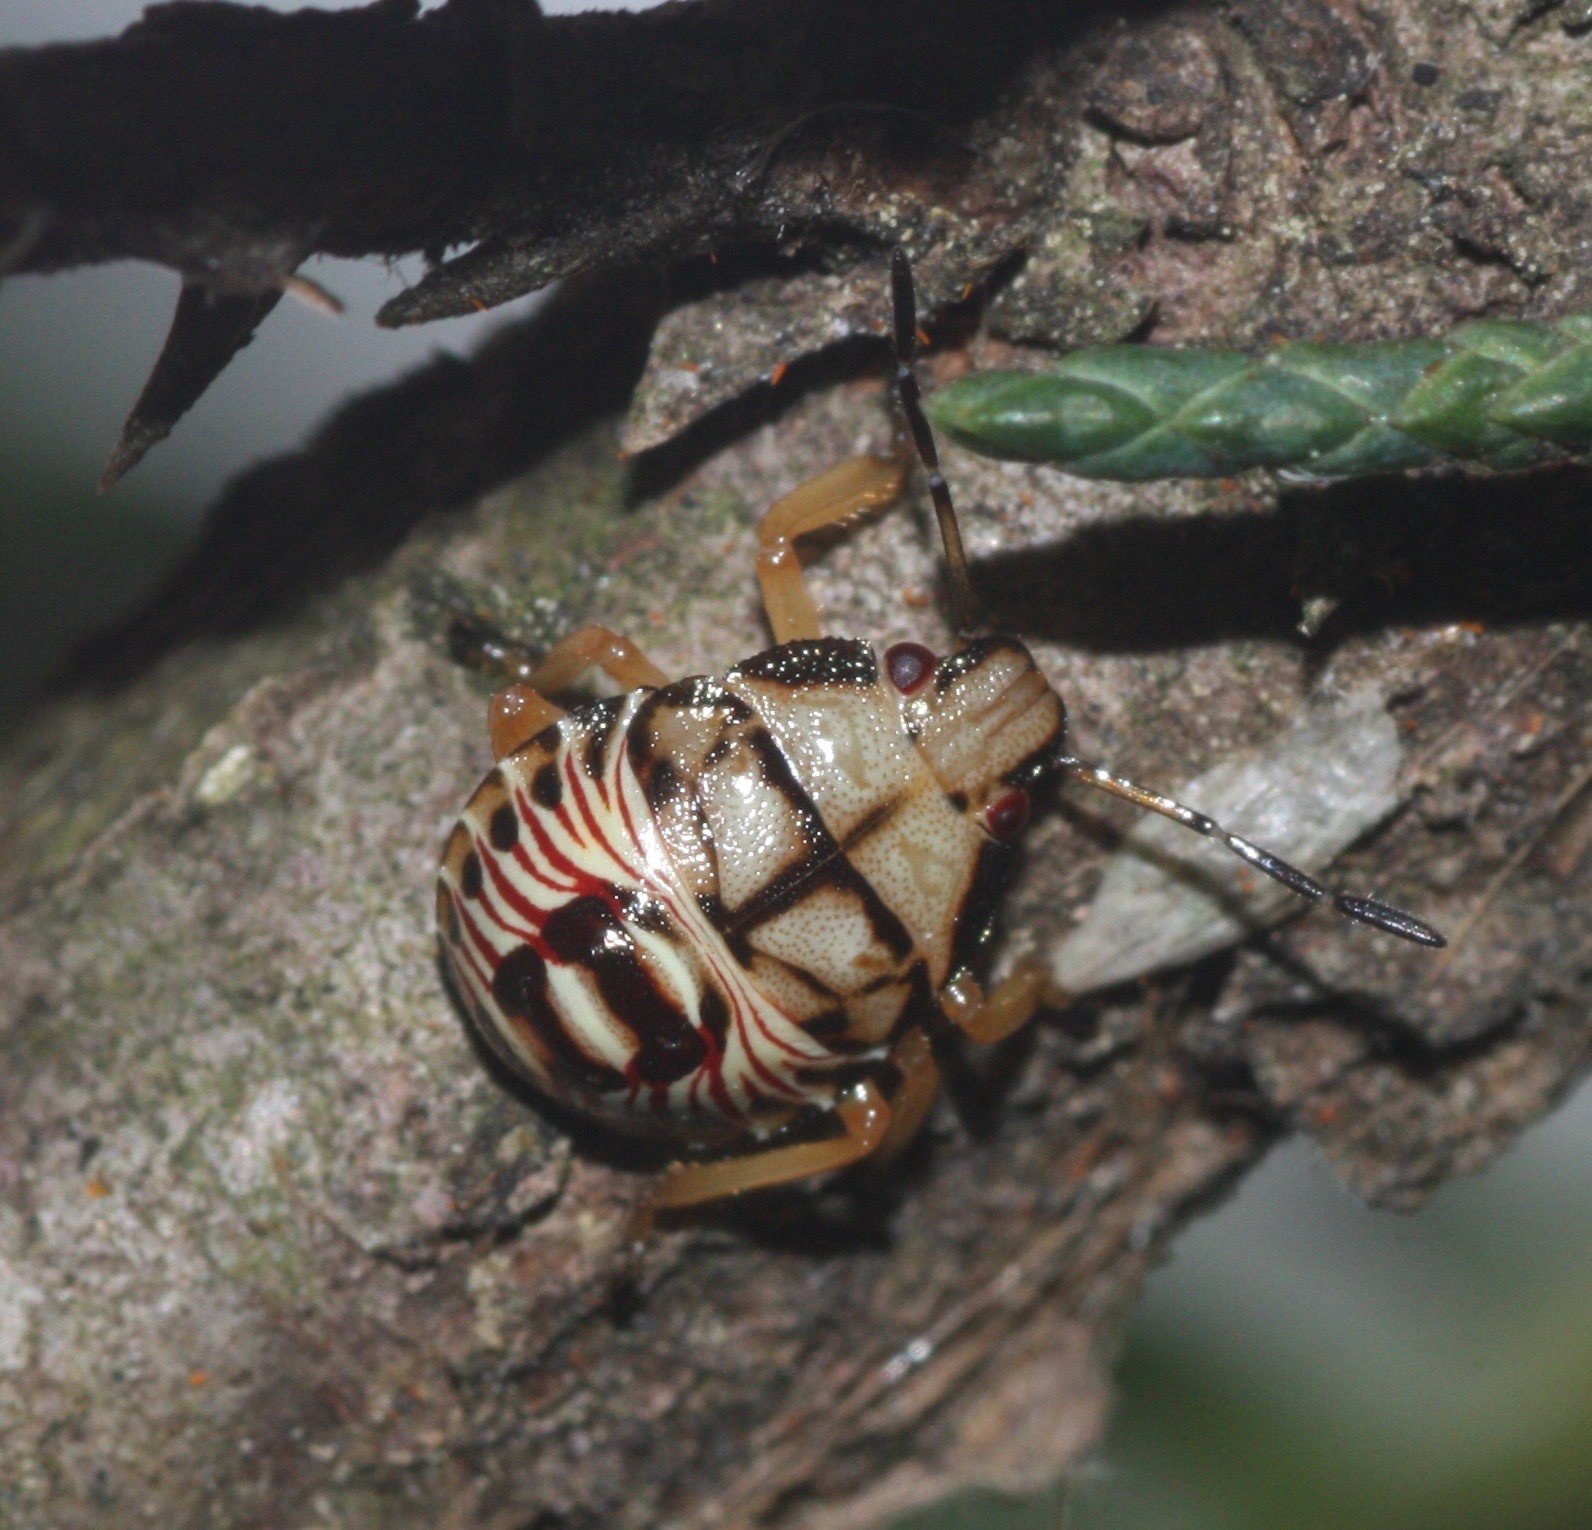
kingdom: Animalia
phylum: Arthropoda
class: Insecta
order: Hemiptera
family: Pentatomidae
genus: Podisus
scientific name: Podisus serieventris
